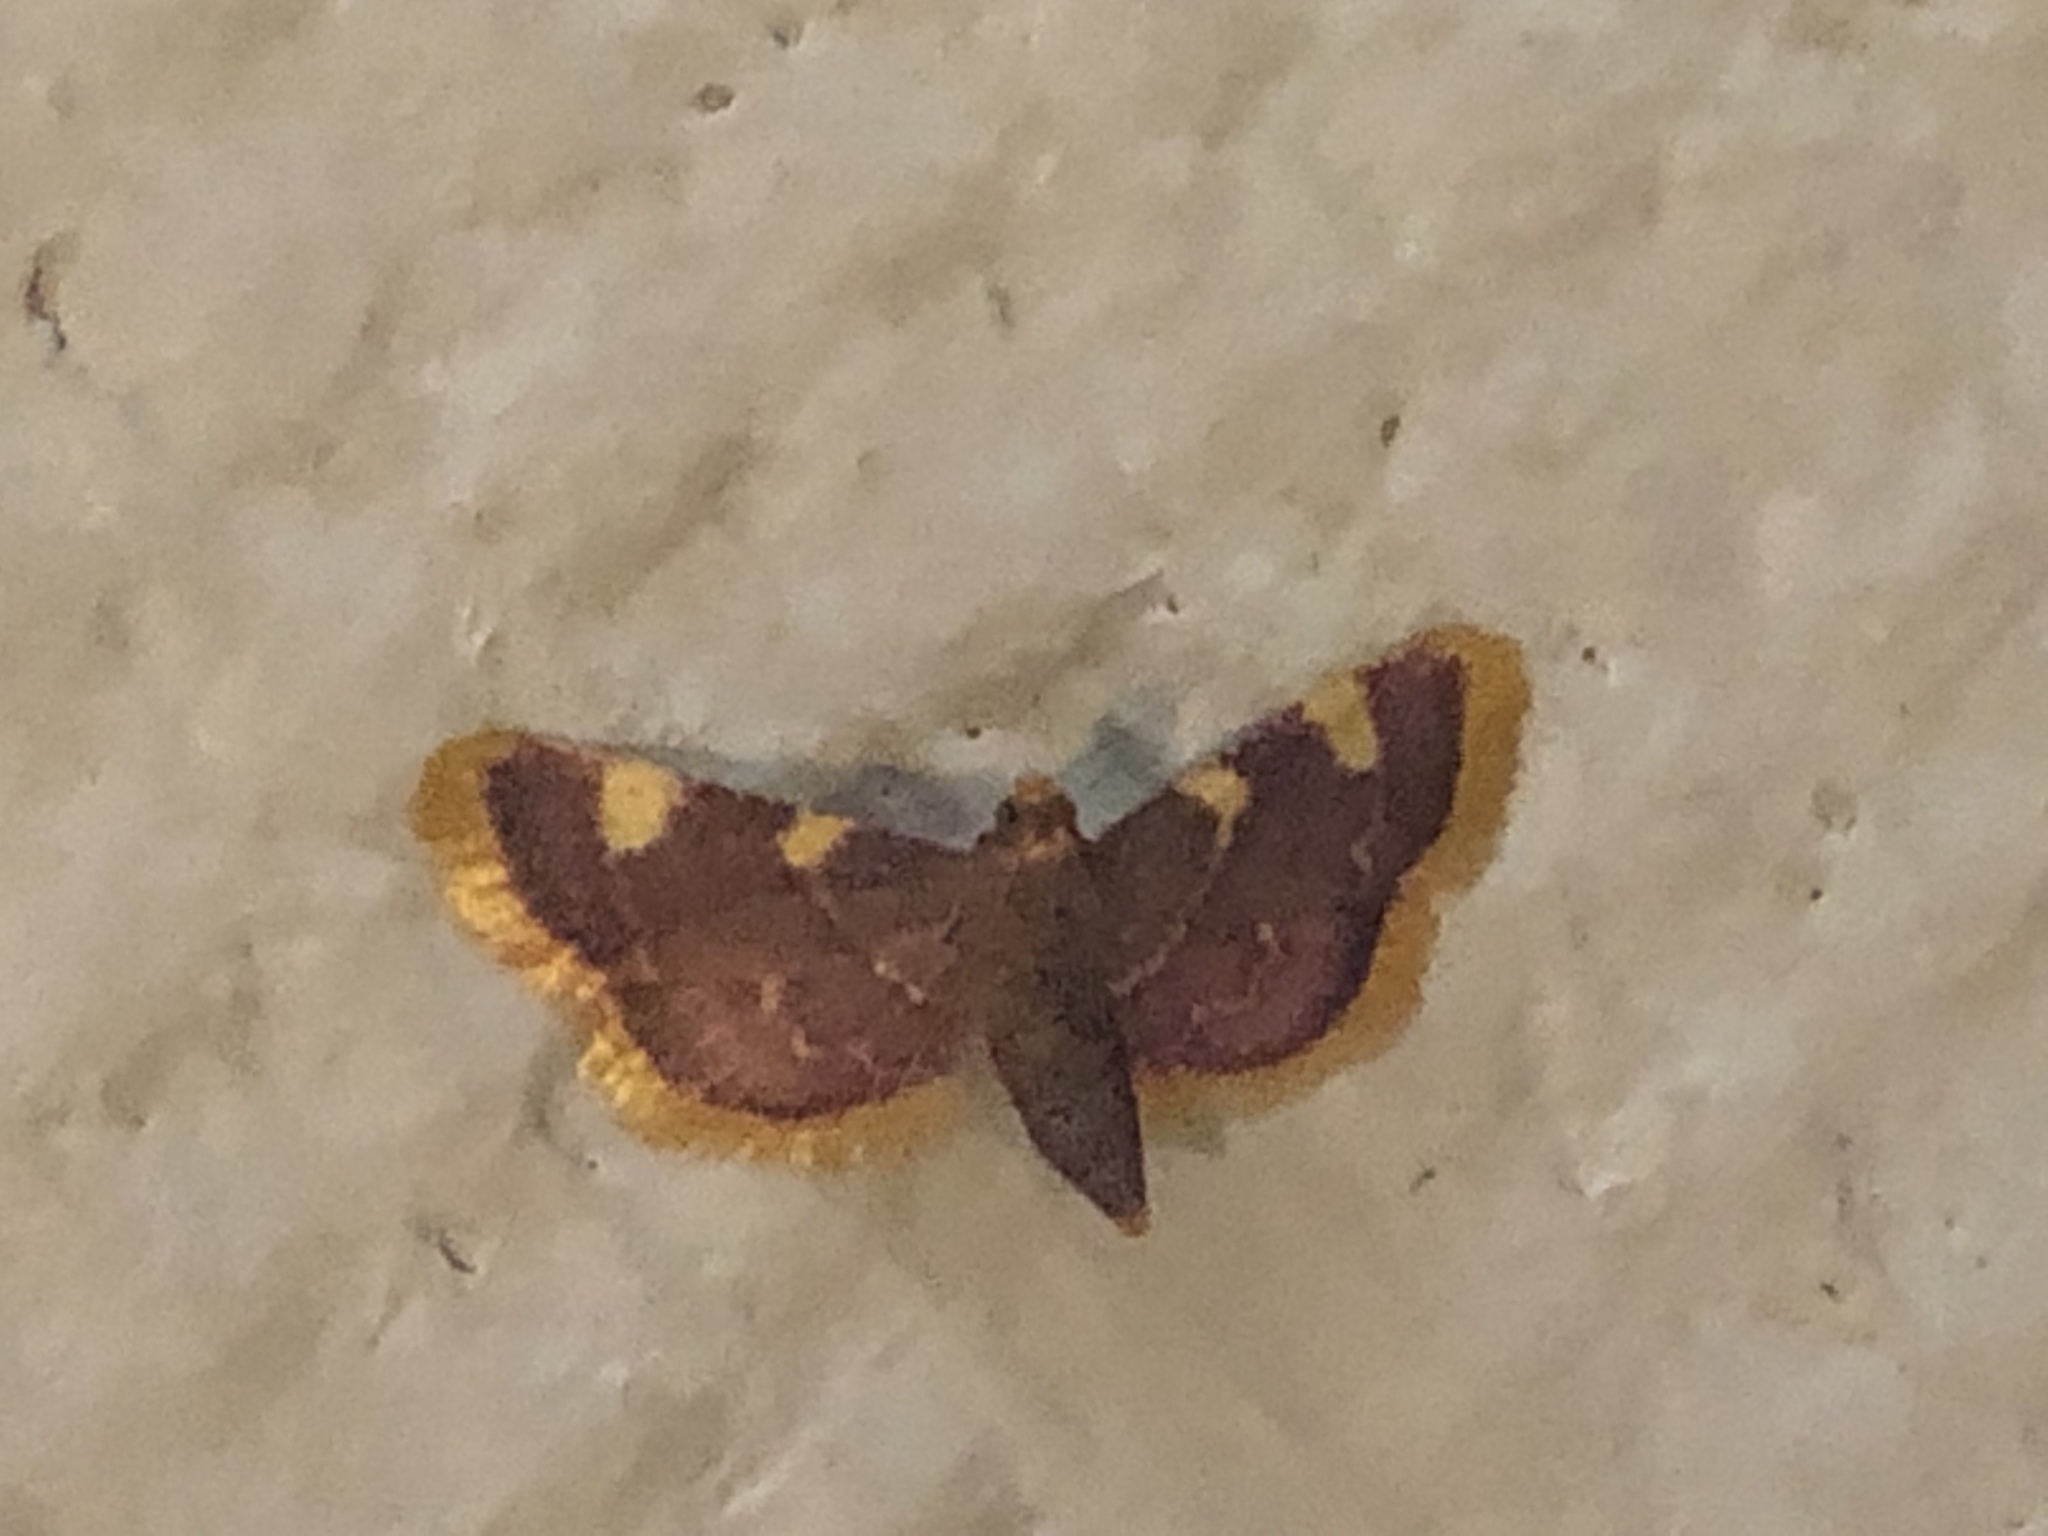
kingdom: Animalia
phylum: Arthropoda
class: Insecta
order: Lepidoptera
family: Pyralidae
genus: Hypsopygia
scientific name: Hypsopygia costalis
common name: Gold triangle
